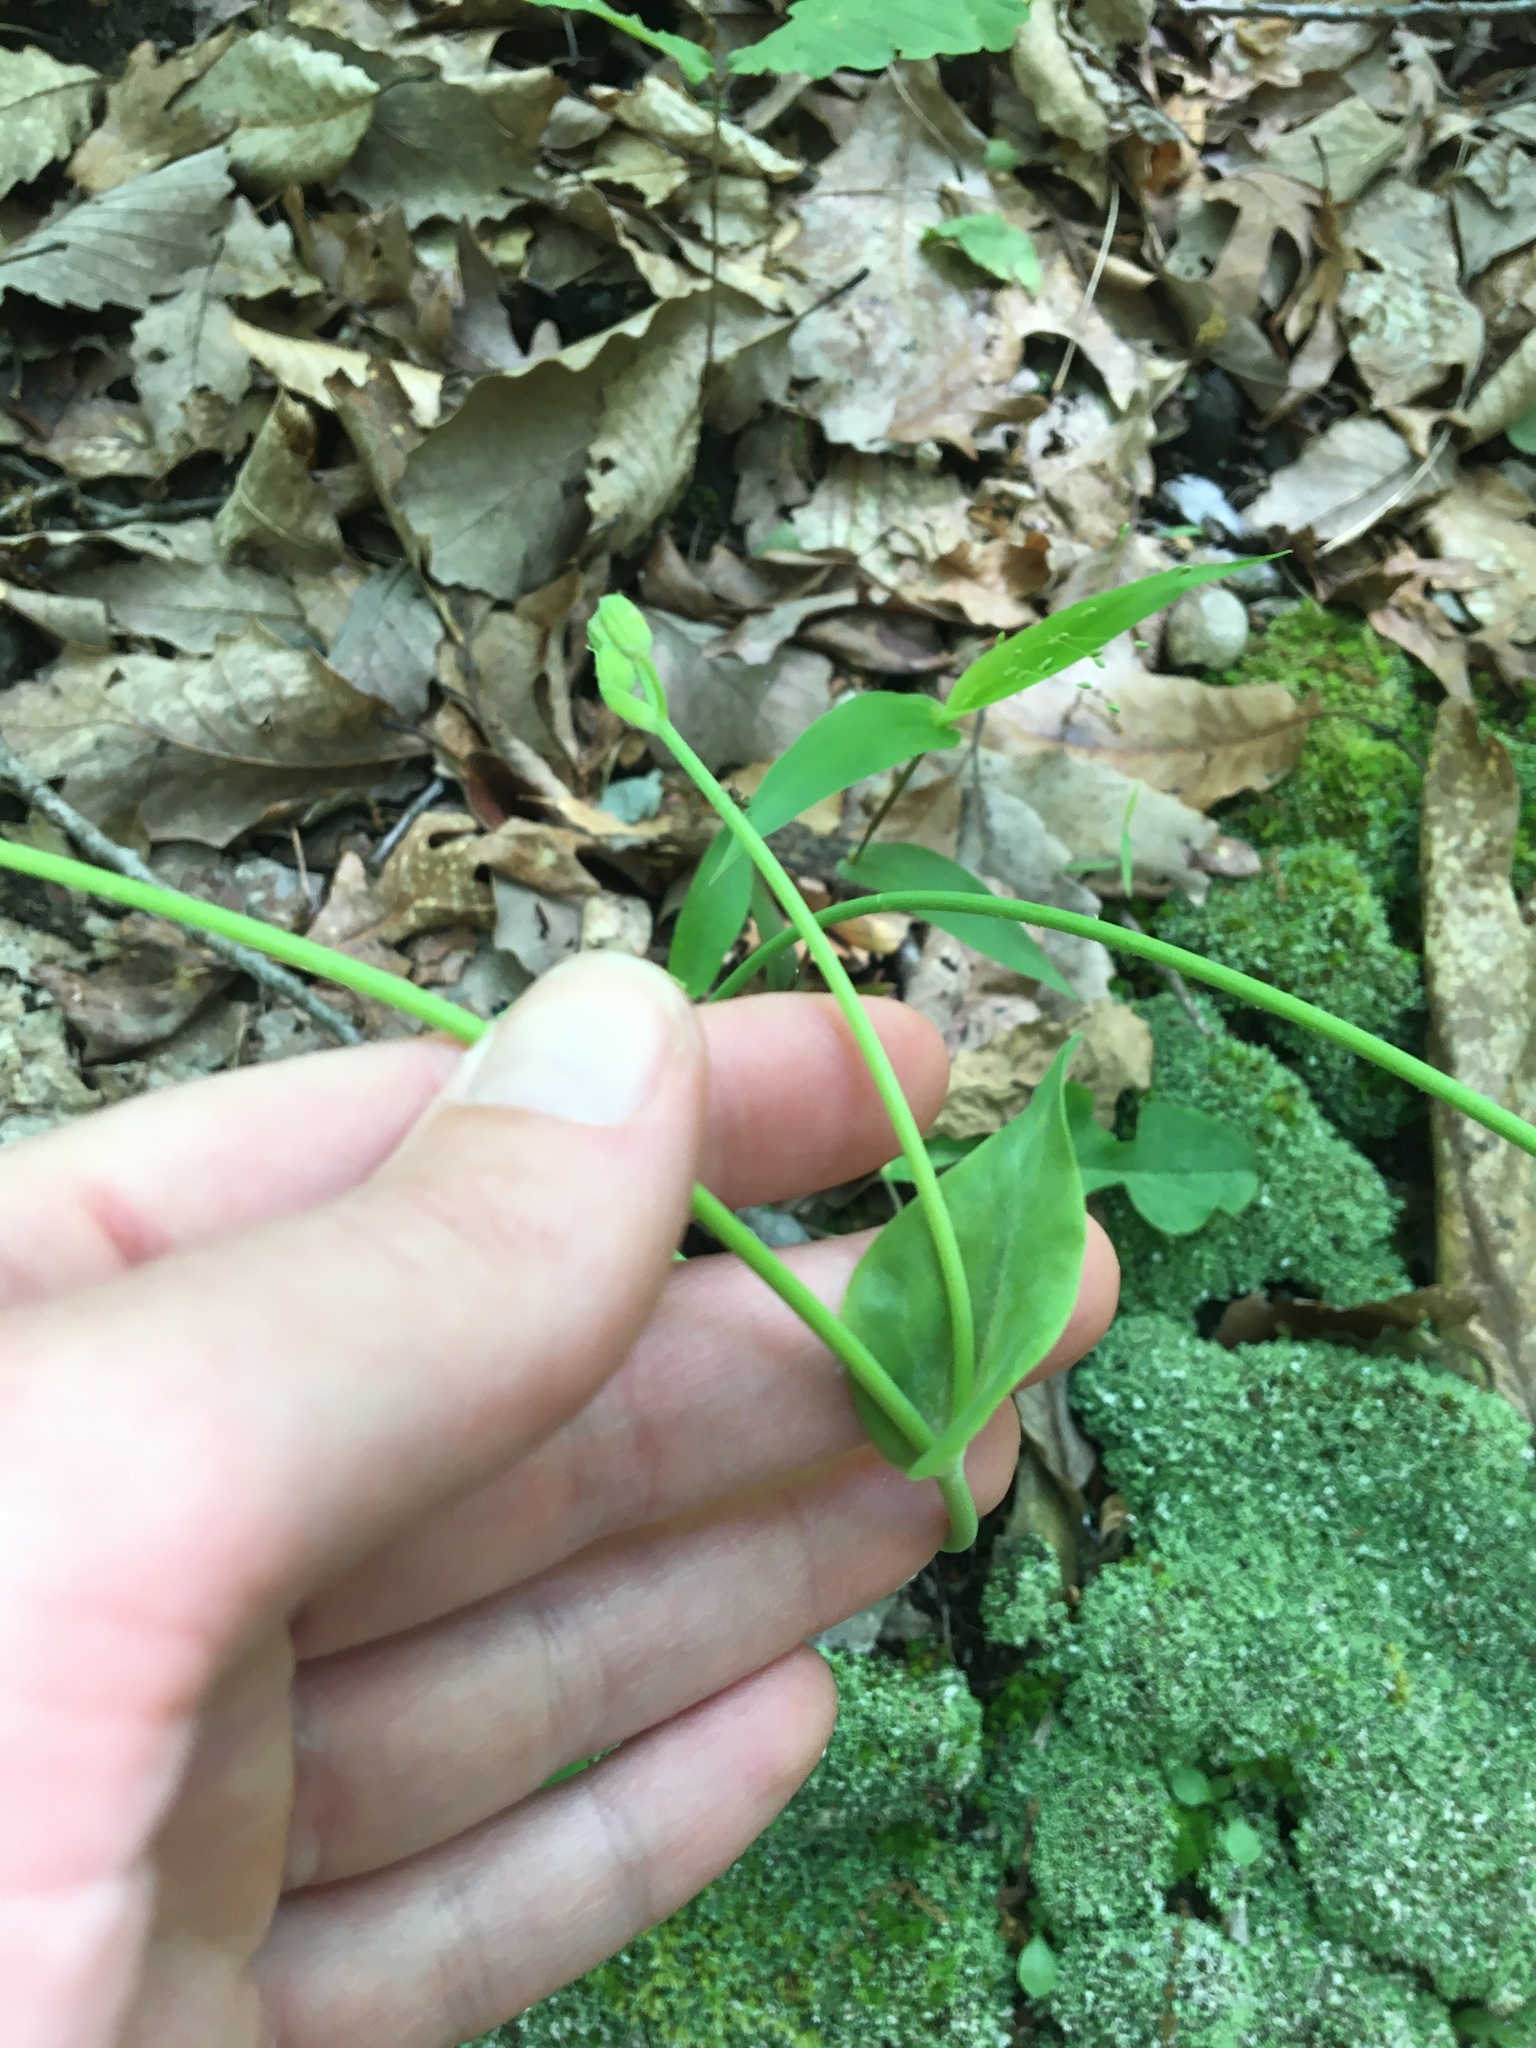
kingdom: Plantae
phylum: Tracheophyta
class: Magnoliopsida
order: Asterales
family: Asteraceae
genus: Krigia
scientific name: Krigia biflora
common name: Orange dwarf-dandelion
